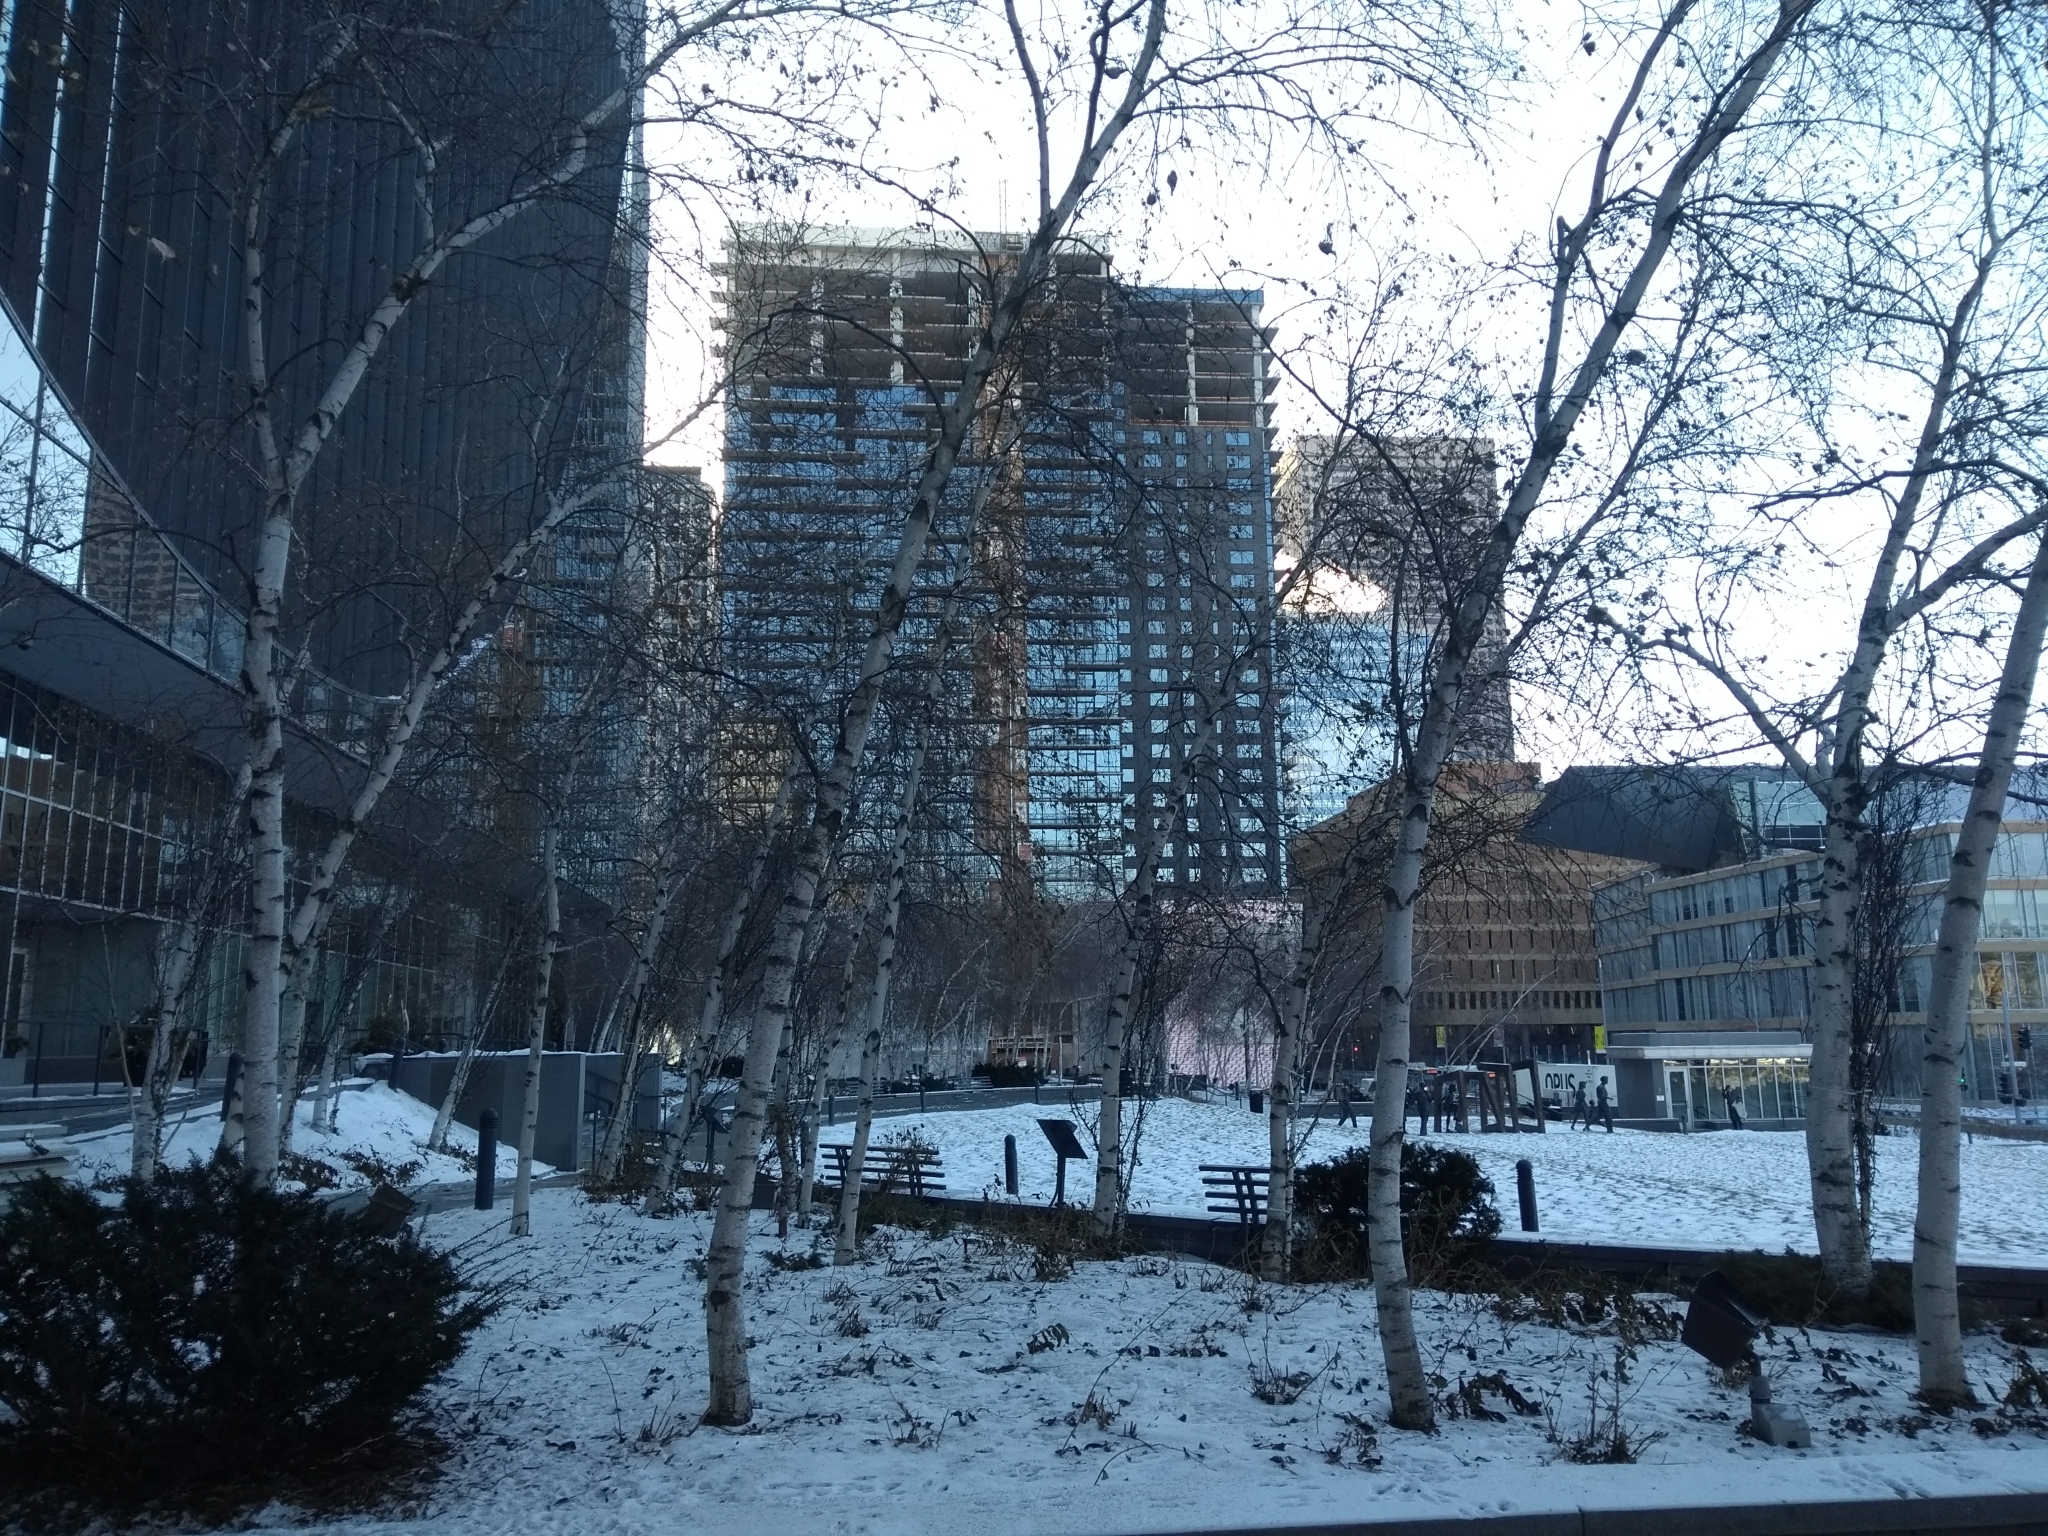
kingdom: Animalia
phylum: Chordata
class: Aves
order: Passeriformes
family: Fringillidae
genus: Acanthis
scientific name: Acanthis flammea
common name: Common redpoll
